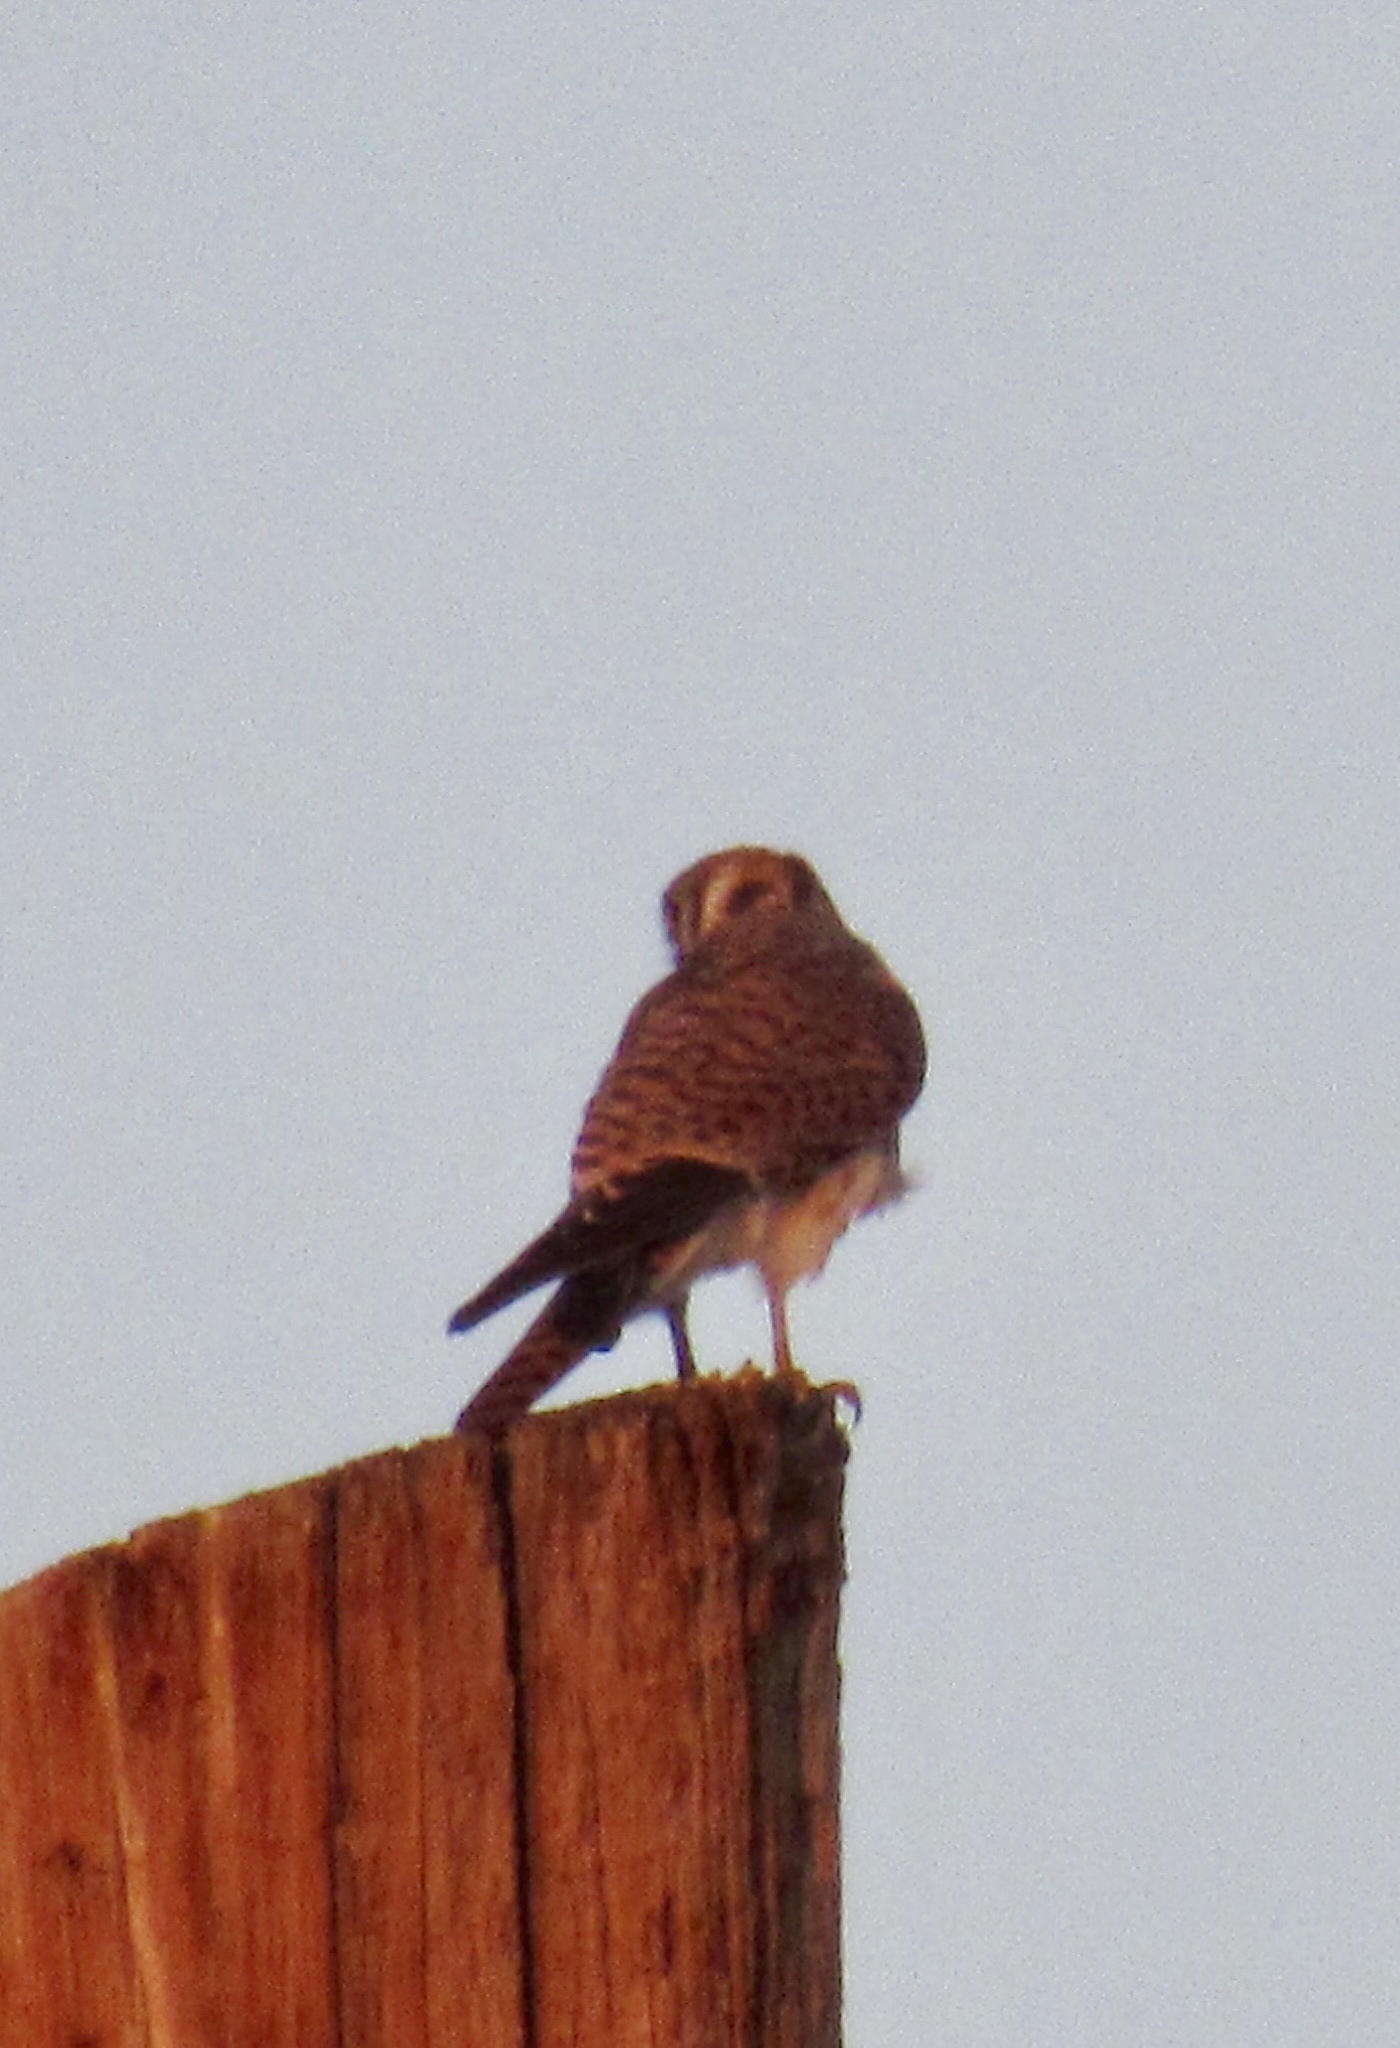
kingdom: Animalia
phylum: Chordata
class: Aves
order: Falconiformes
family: Falconidae
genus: Falco
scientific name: Falco sparverius
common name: American kestrel
